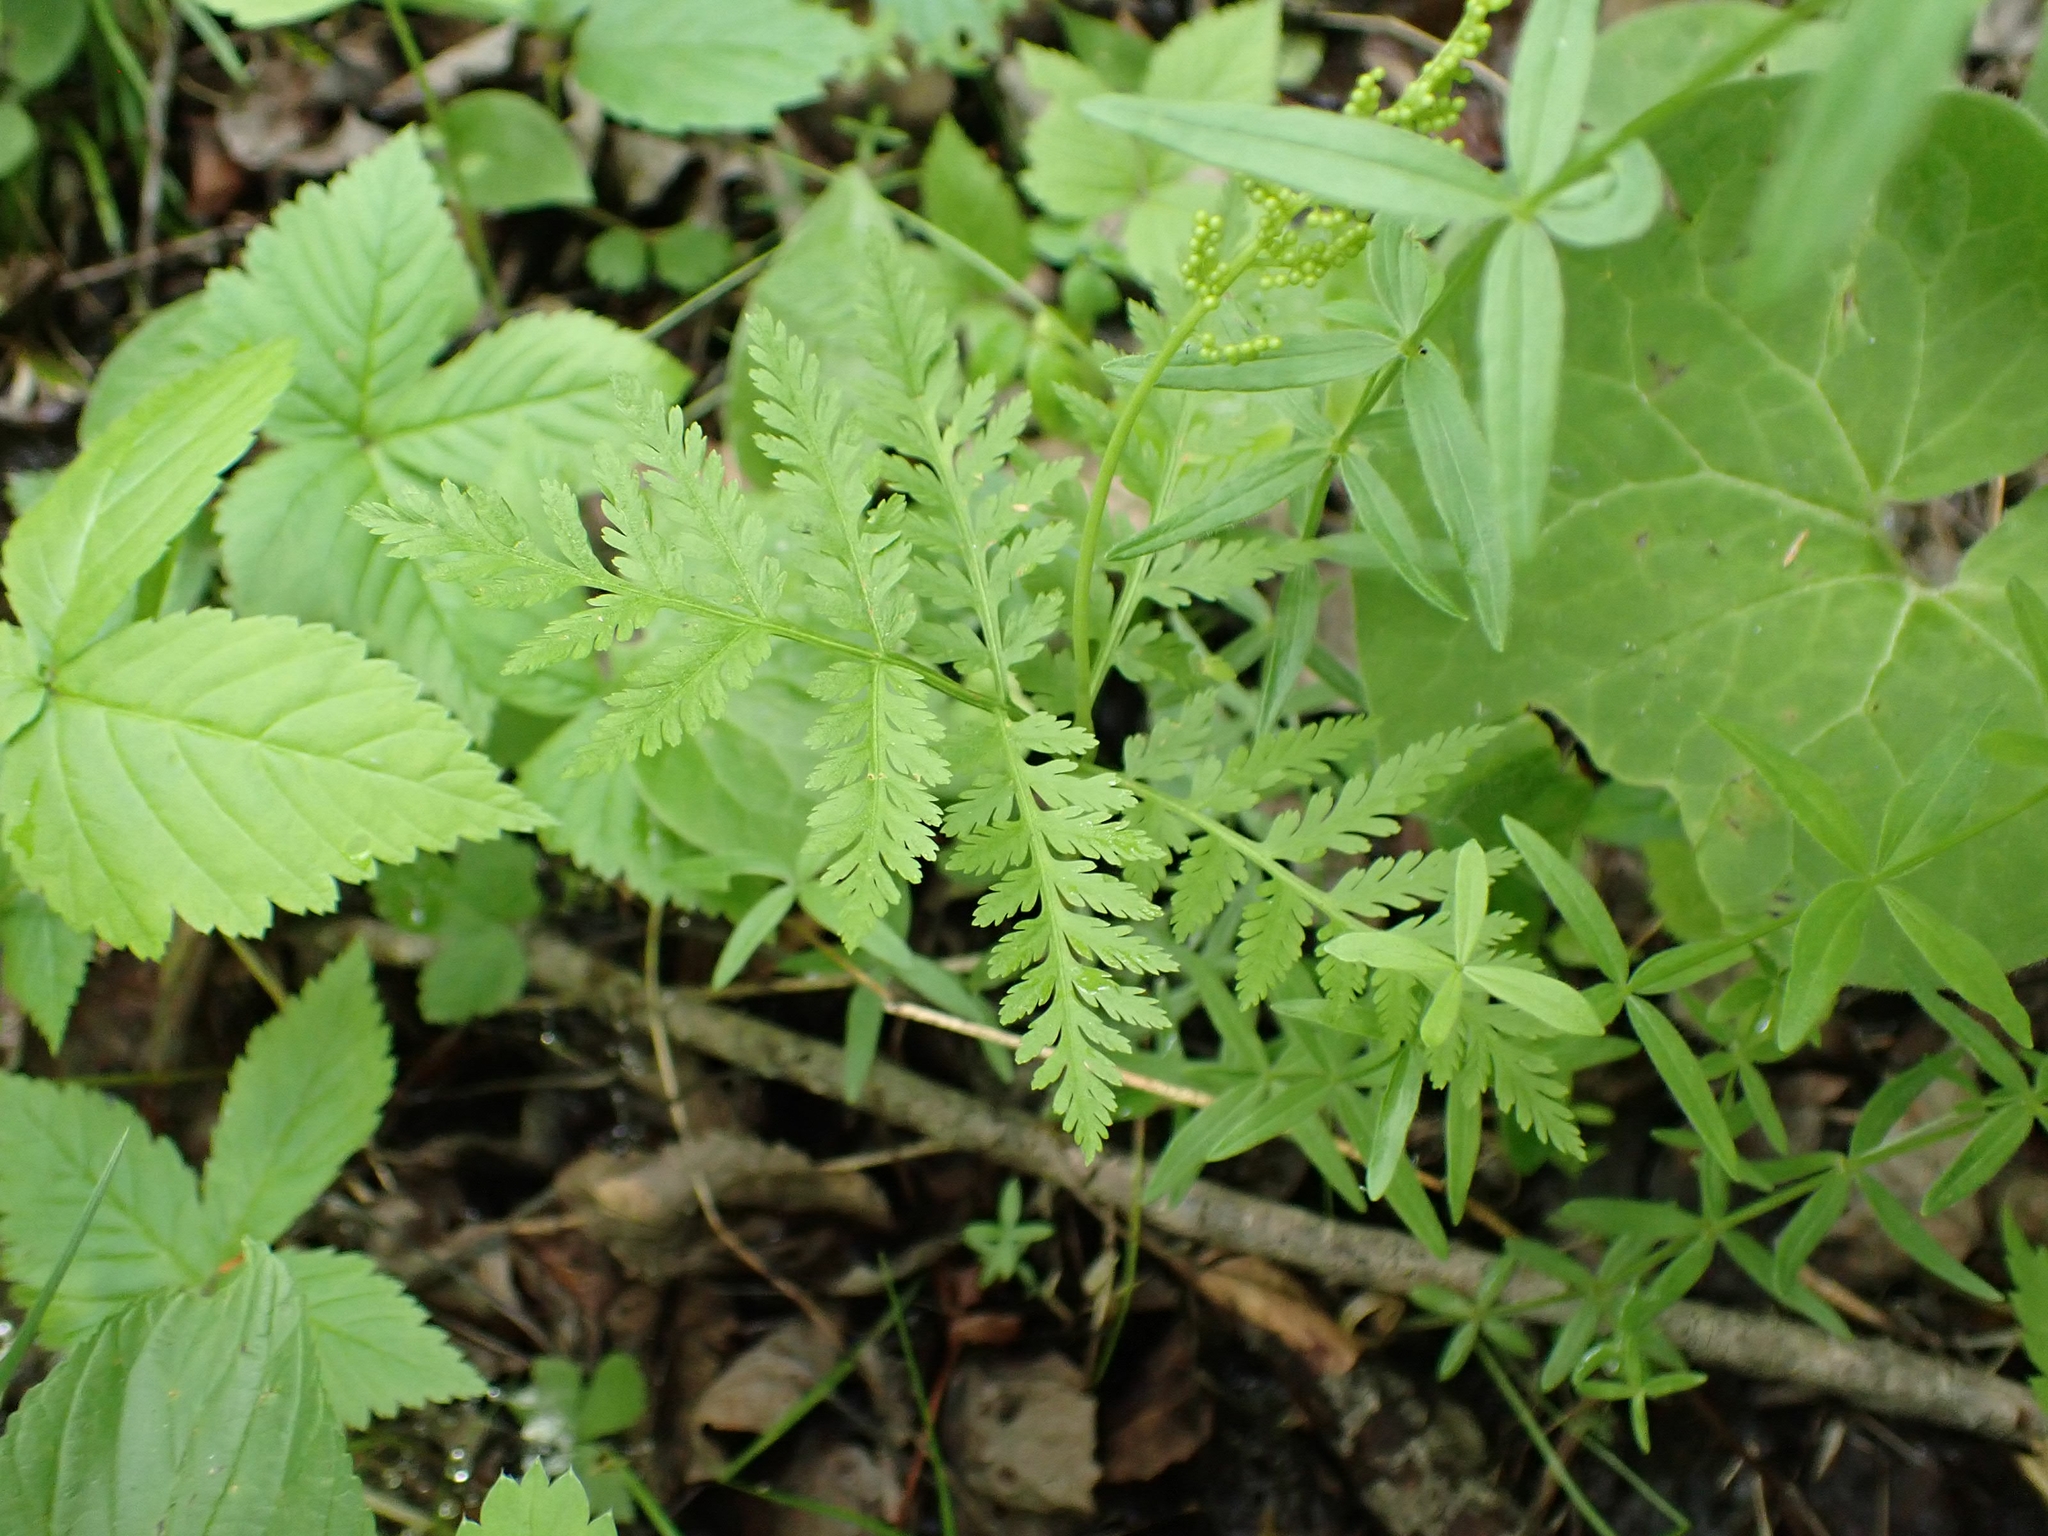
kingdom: Plantae
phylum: Tracheophyta
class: Polypodiopsida
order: Ophioglossales
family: Ophioglossaceae
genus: Botrypus
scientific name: Botrypus virginianus
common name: Common grapefern
